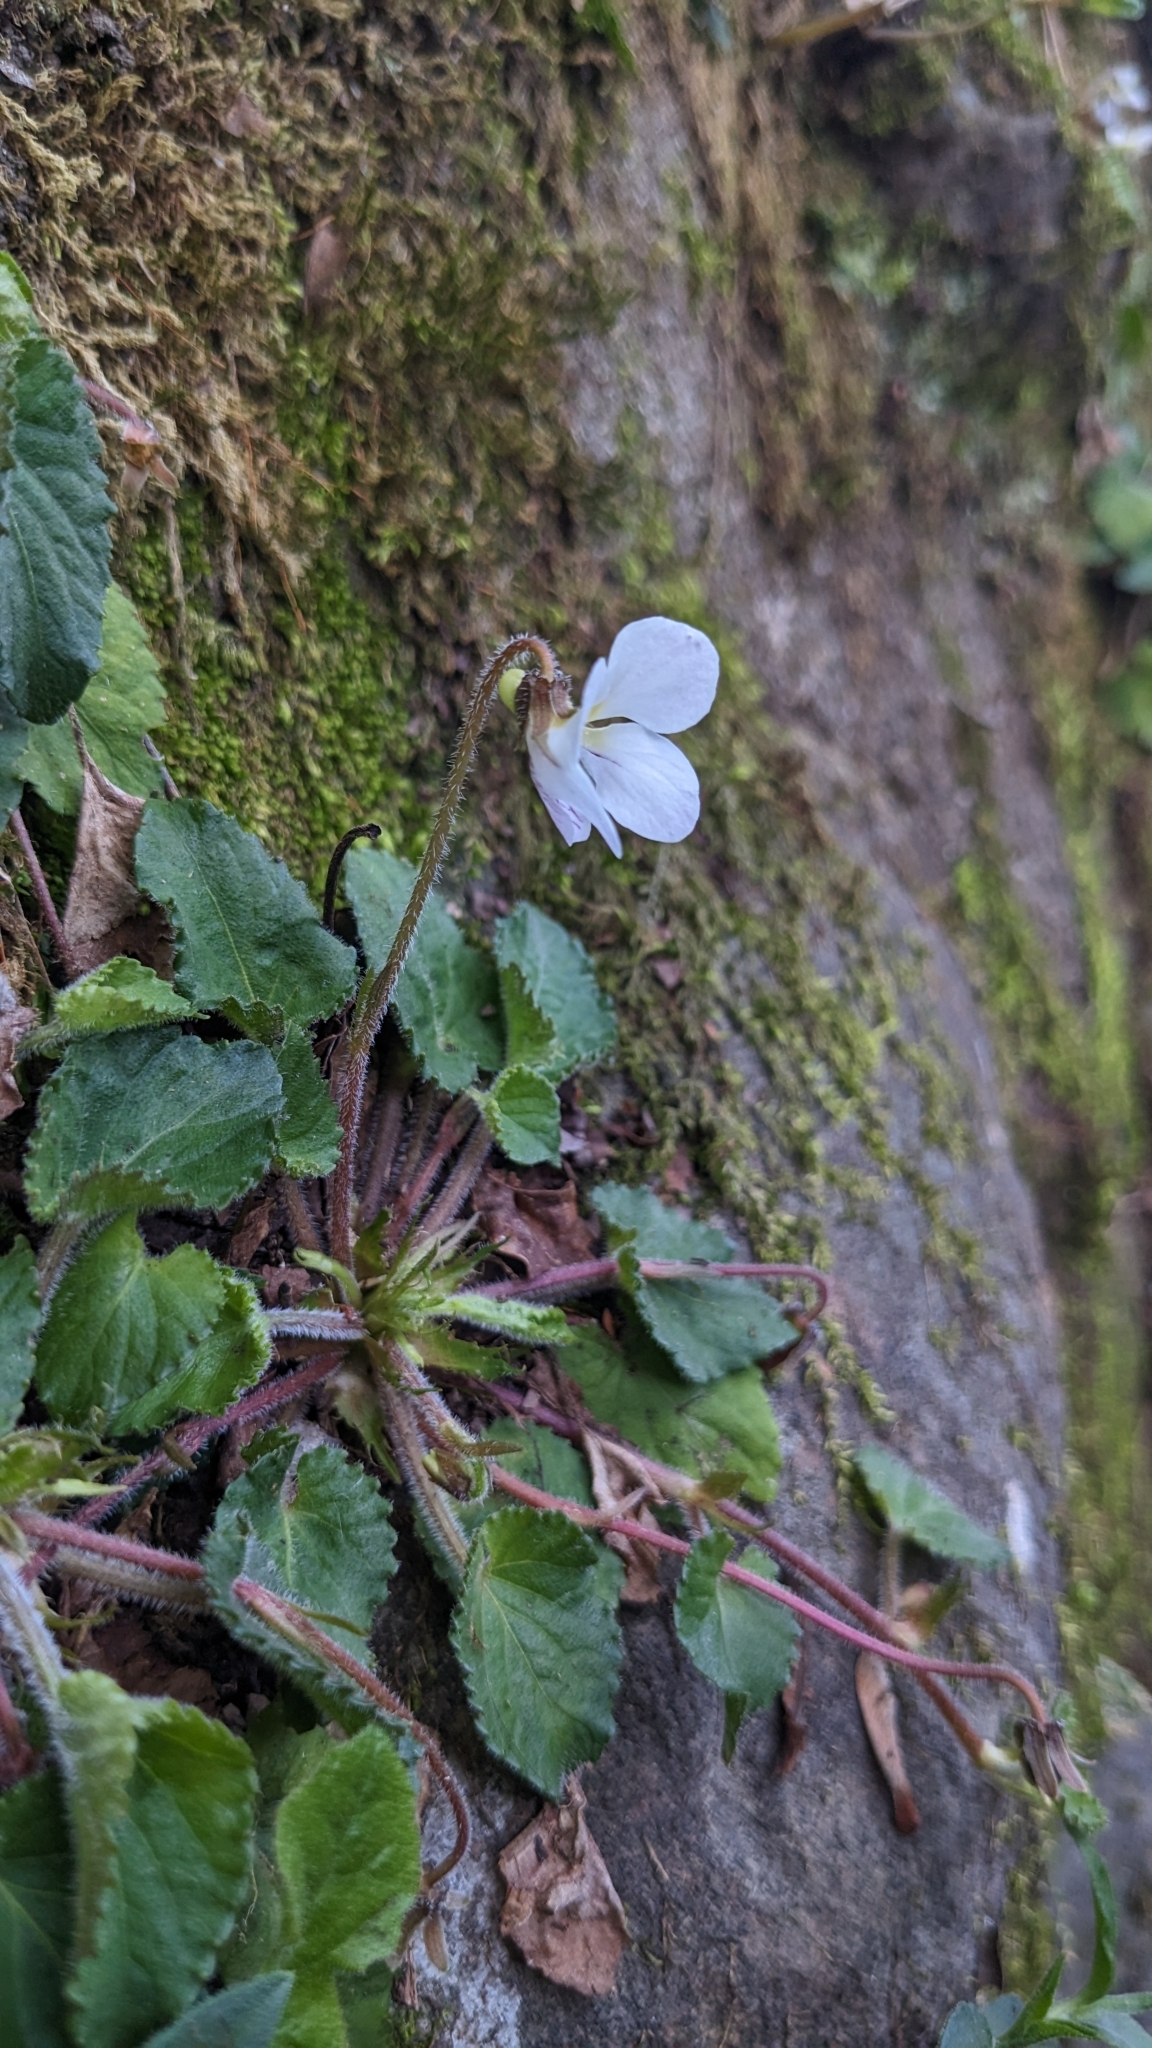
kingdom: Plantae
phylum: Tracheophyta
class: Magnoliopsida
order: Malpighiales
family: Violaceae
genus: Viola
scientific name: Viola adenothrix
